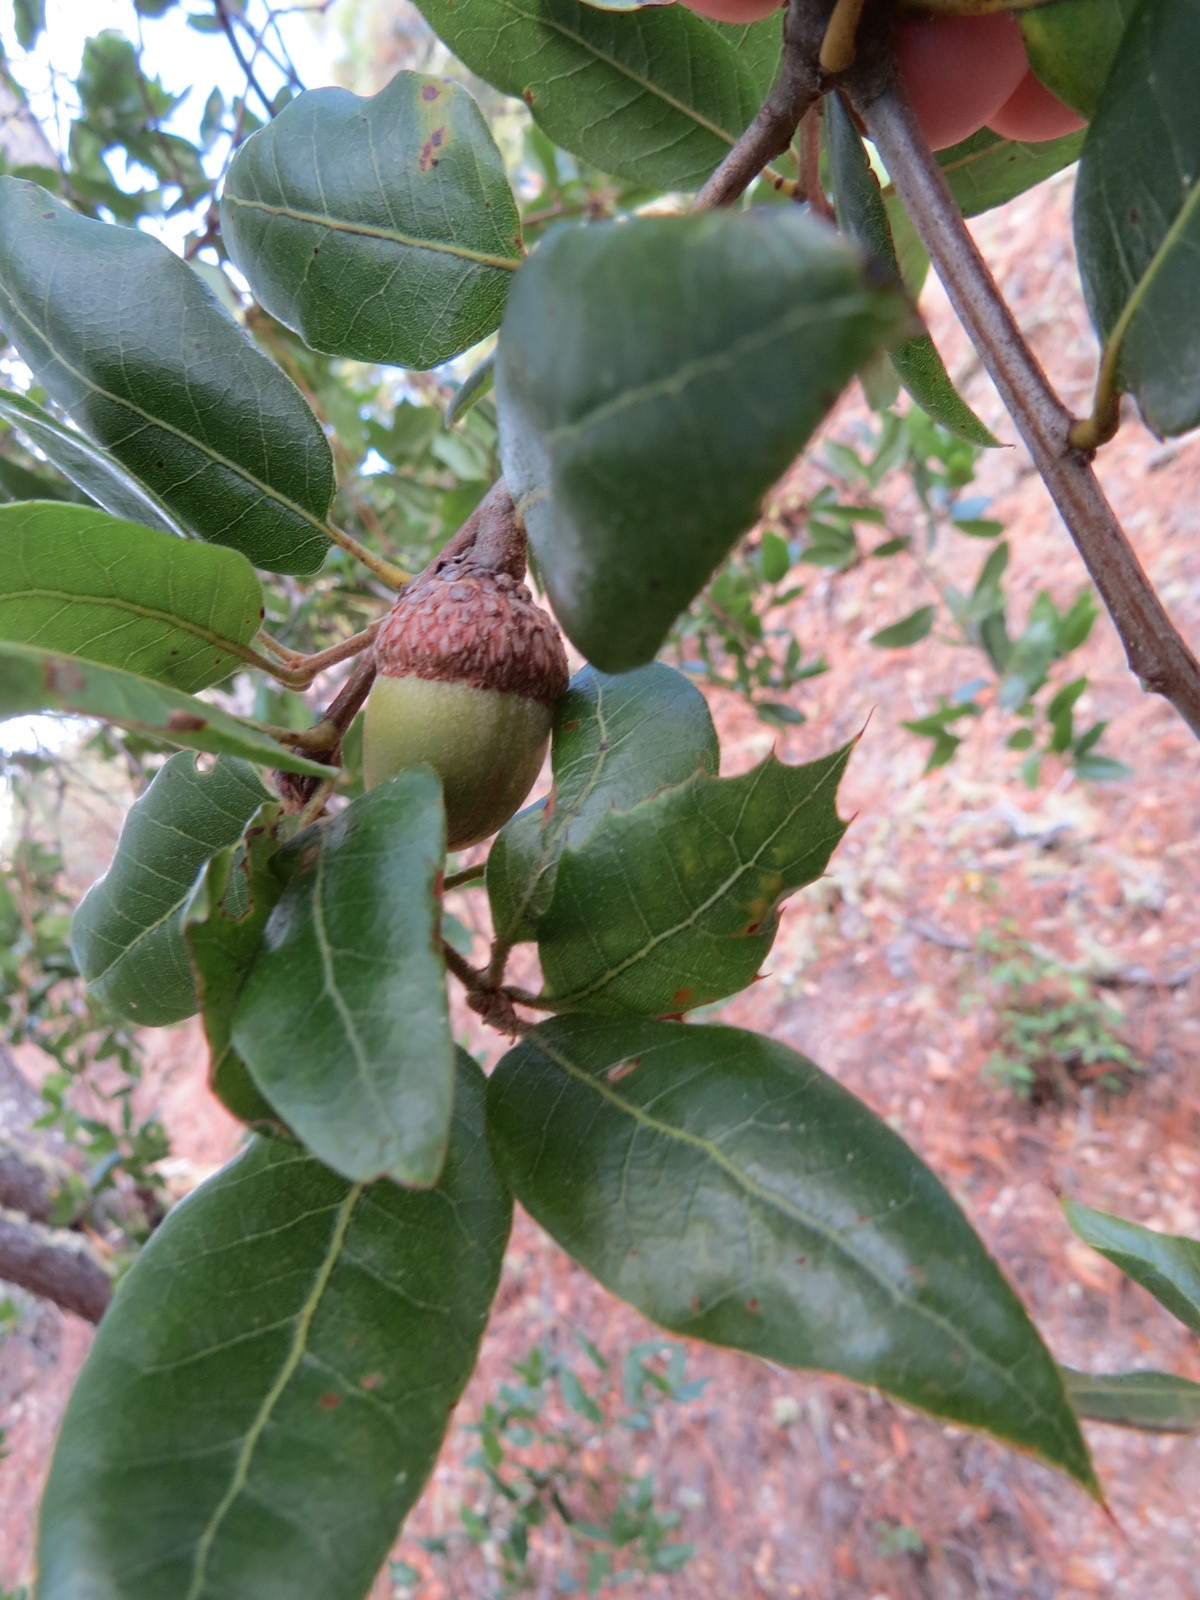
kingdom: Plantae
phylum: Tracheophyta
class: Magnoliopsida
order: Fagales
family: Fagaceae
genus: Quercus
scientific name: Quercus parvula
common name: Santa cruz island oak
